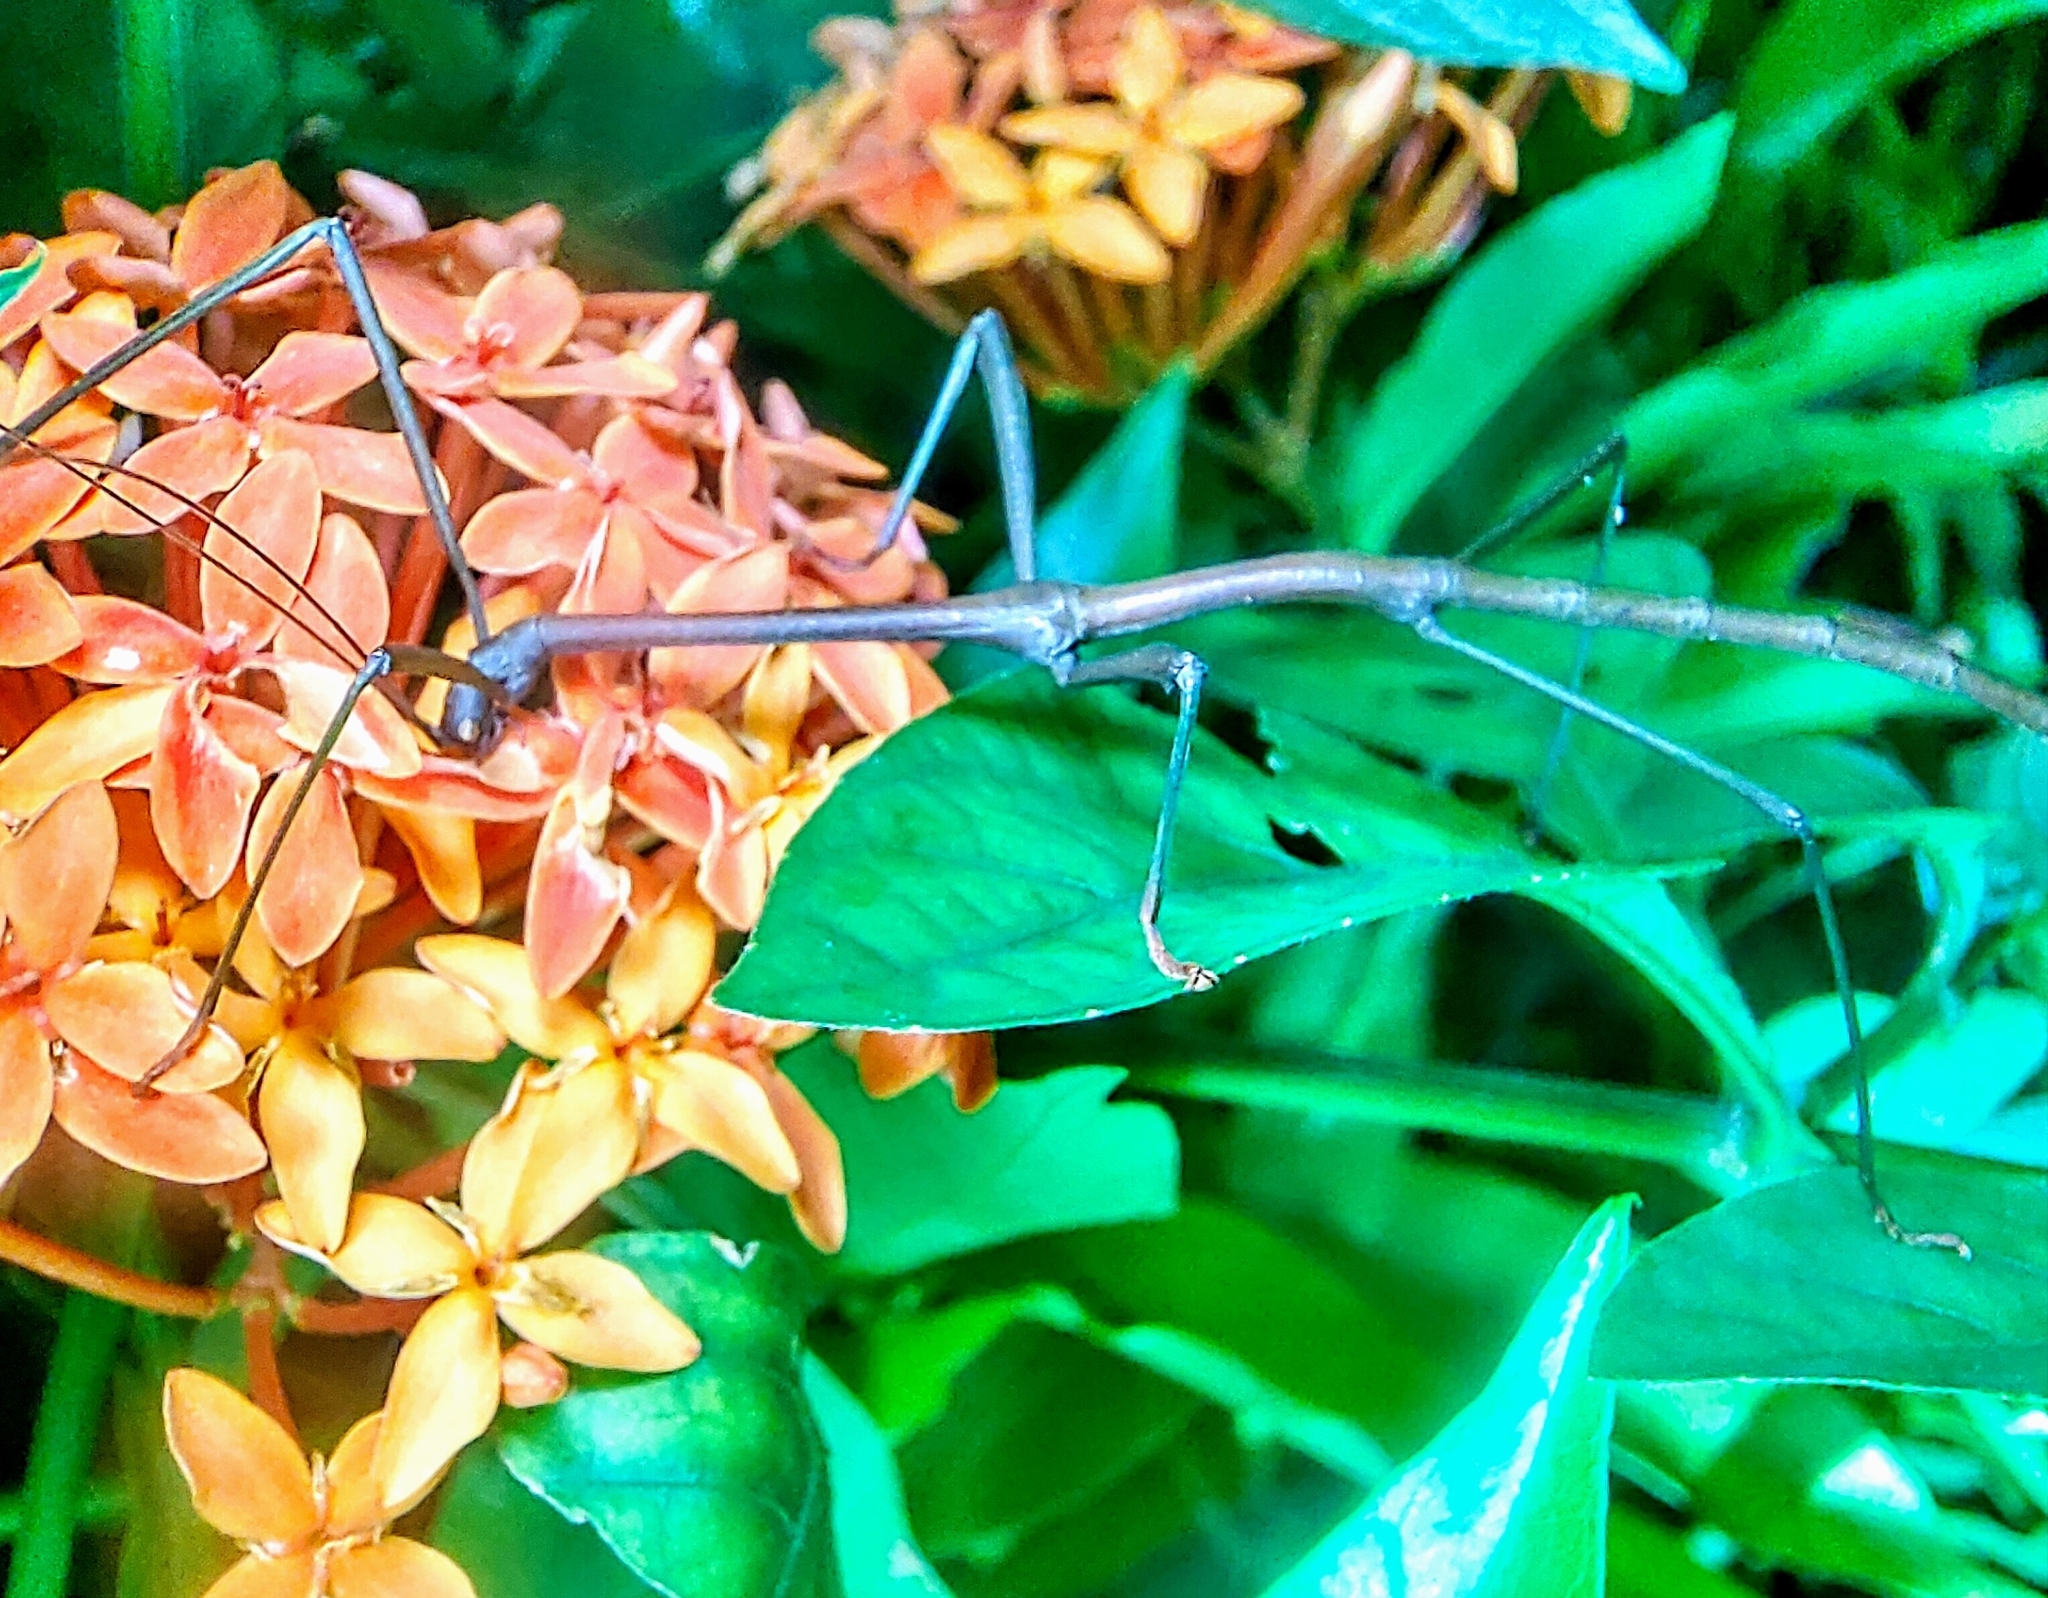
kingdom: Animalia
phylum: Arthropoda
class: Insecta
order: Phasmida
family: Lonchodidae
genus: Lonchodes
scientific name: Lonchodes brevipes
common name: Gray's malayan stick insect
